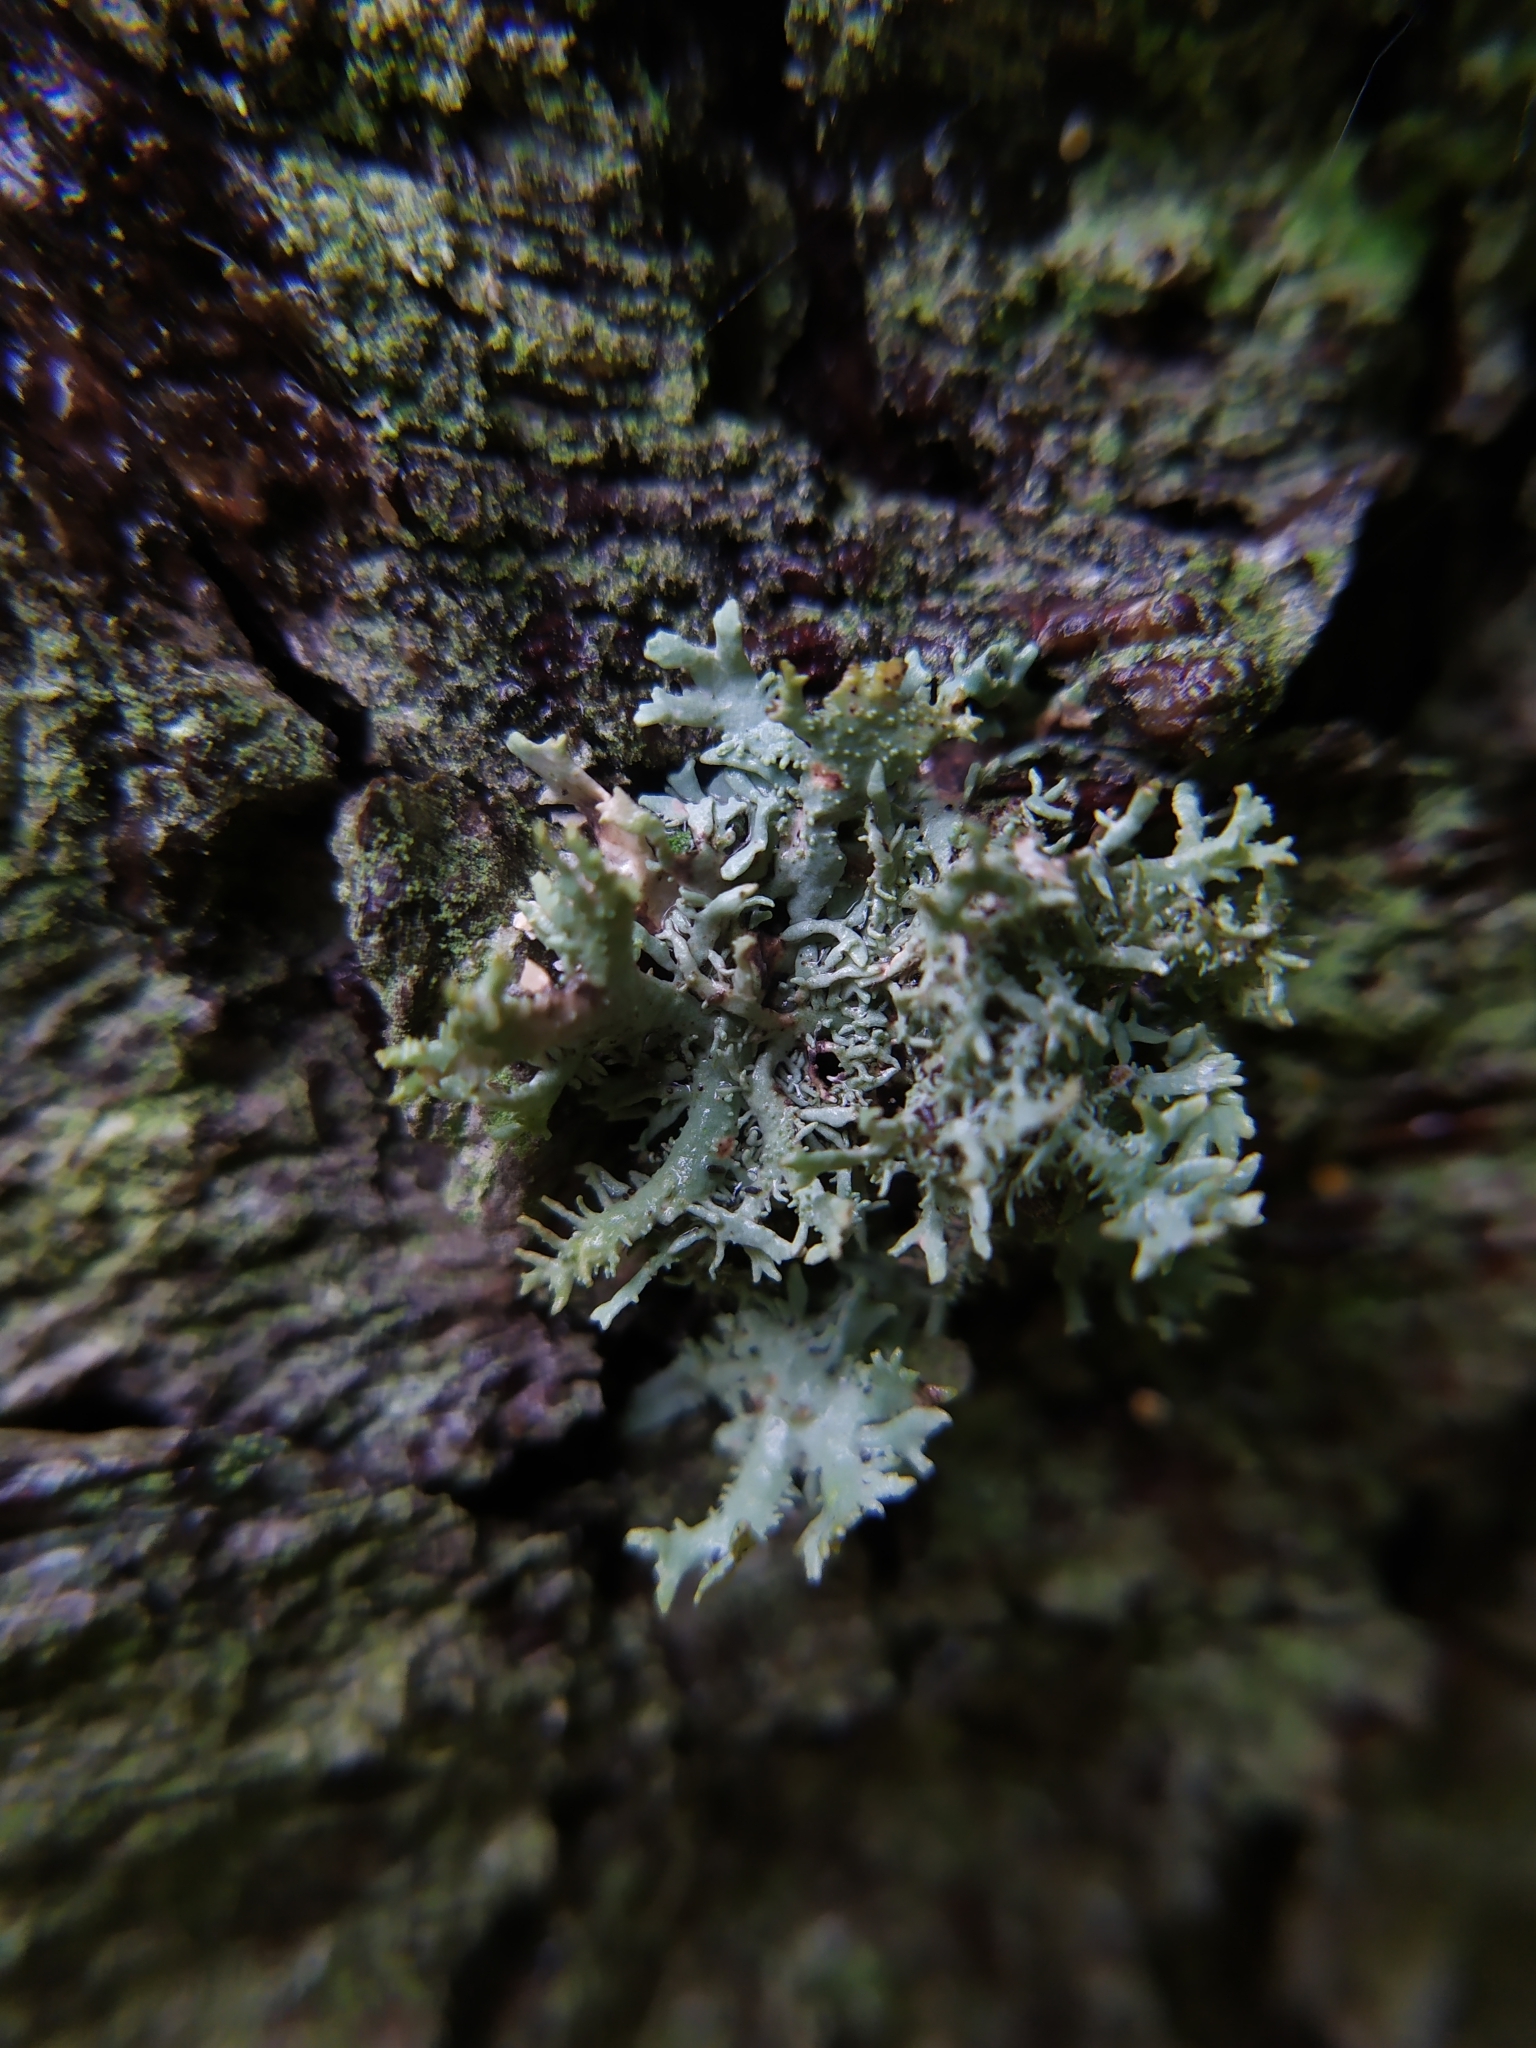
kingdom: Fungi
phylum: Ascomycota
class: Lecanoromycetes
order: Lecanorales
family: Parmeliaceae
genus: Pseudevernia
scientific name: Pseudevernia furfuracea
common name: Tree moss
